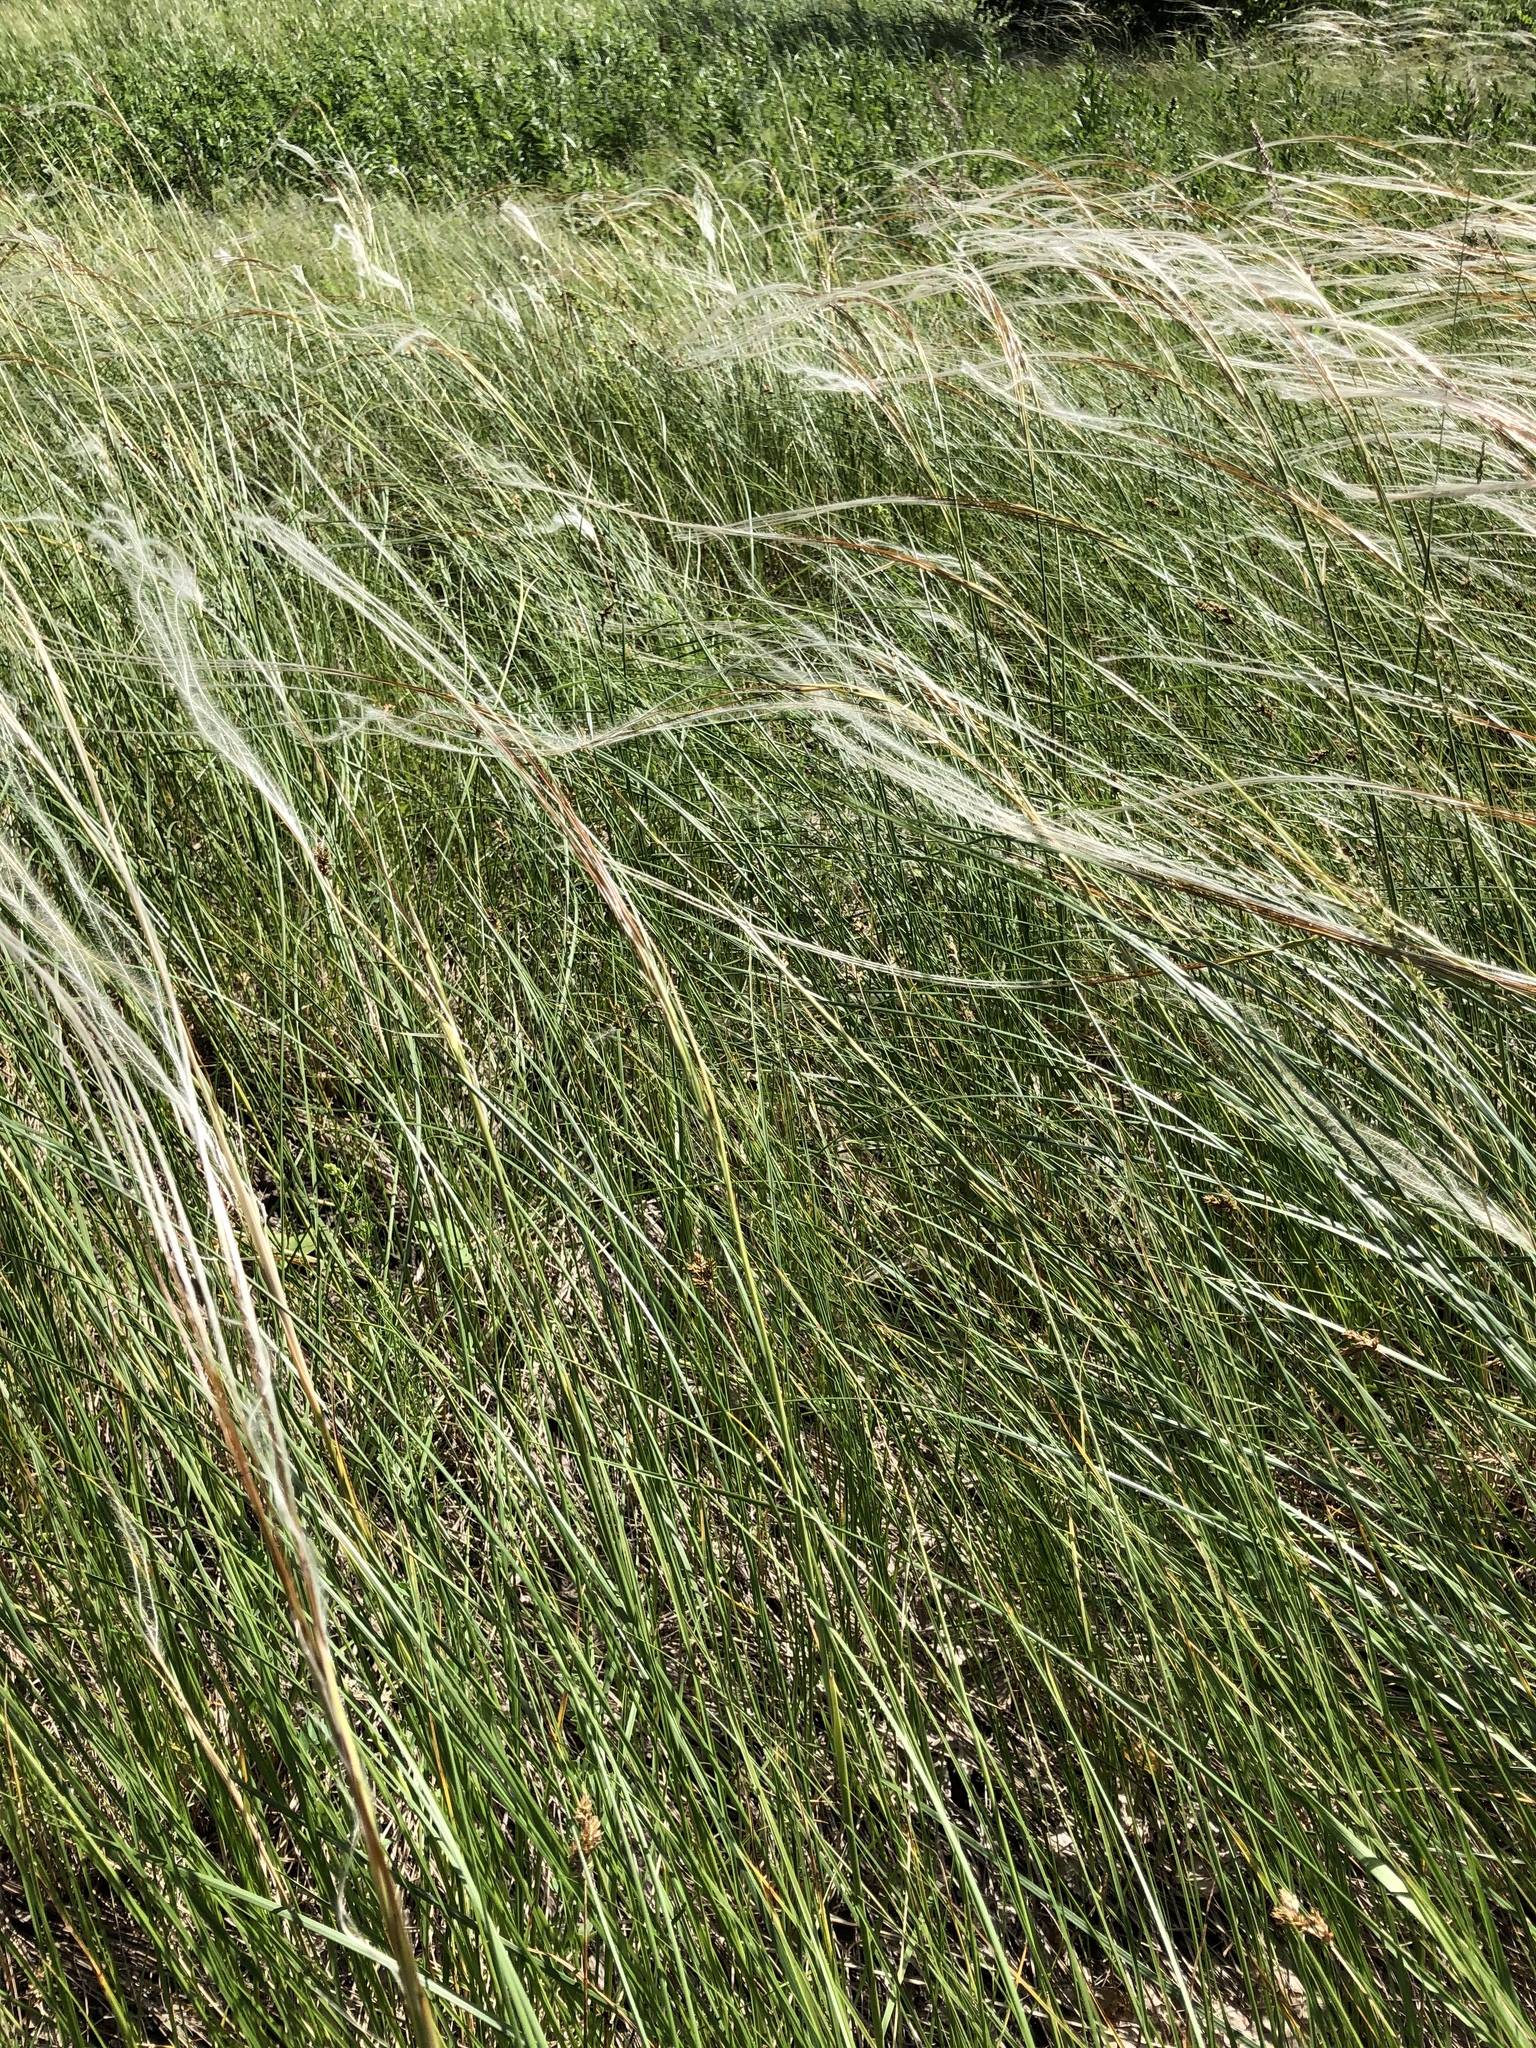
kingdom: Plantae
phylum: Tracheophyta
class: Liliopsida
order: Poales
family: Poaceae
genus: Stipa
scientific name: Stipa pennata
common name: European feather grass
